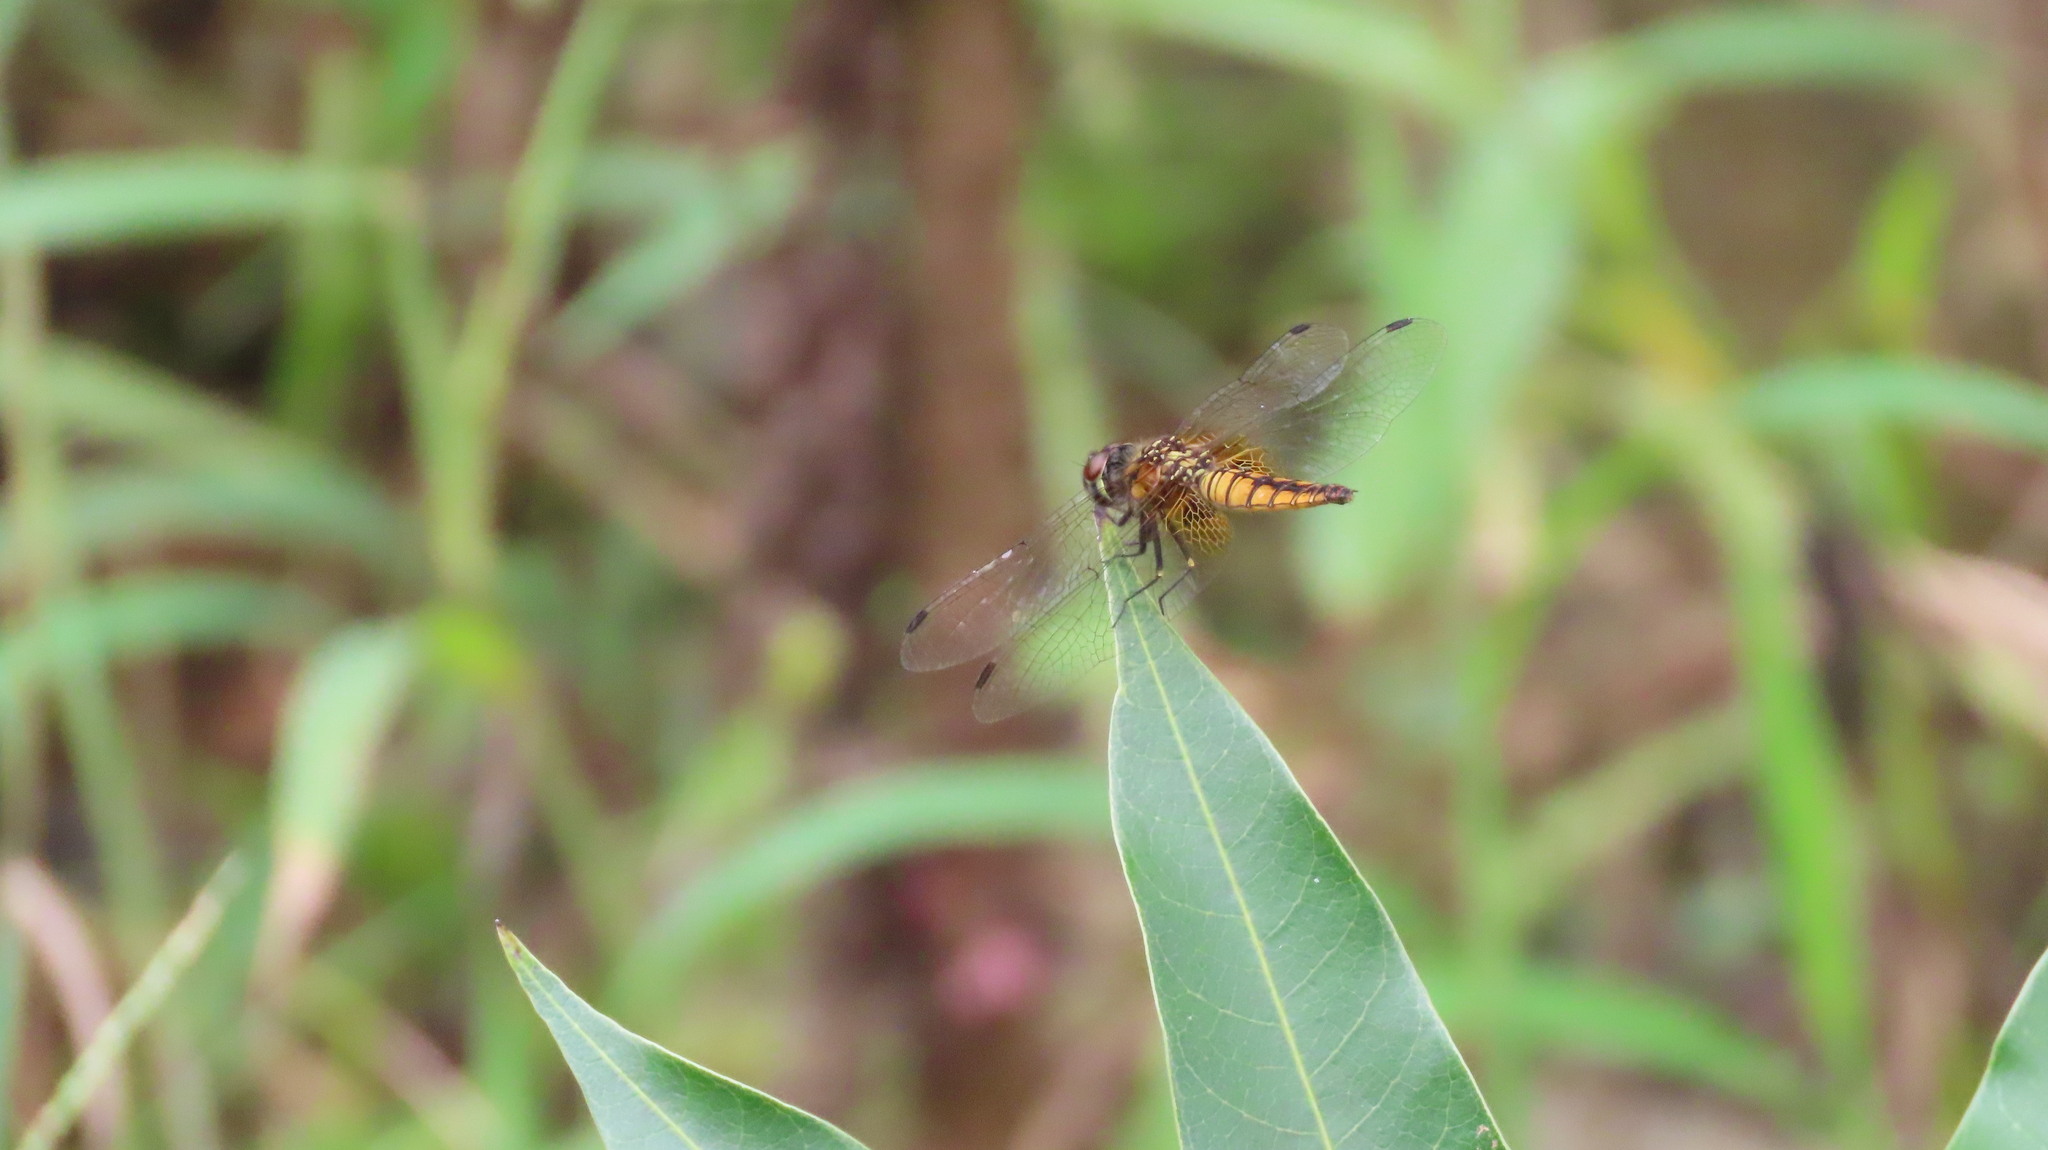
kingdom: Animalia
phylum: Arthropoda
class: Insecta
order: Odonata
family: Libellulidae
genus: Aethriamanta
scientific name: Aethriamanta brevipennis
